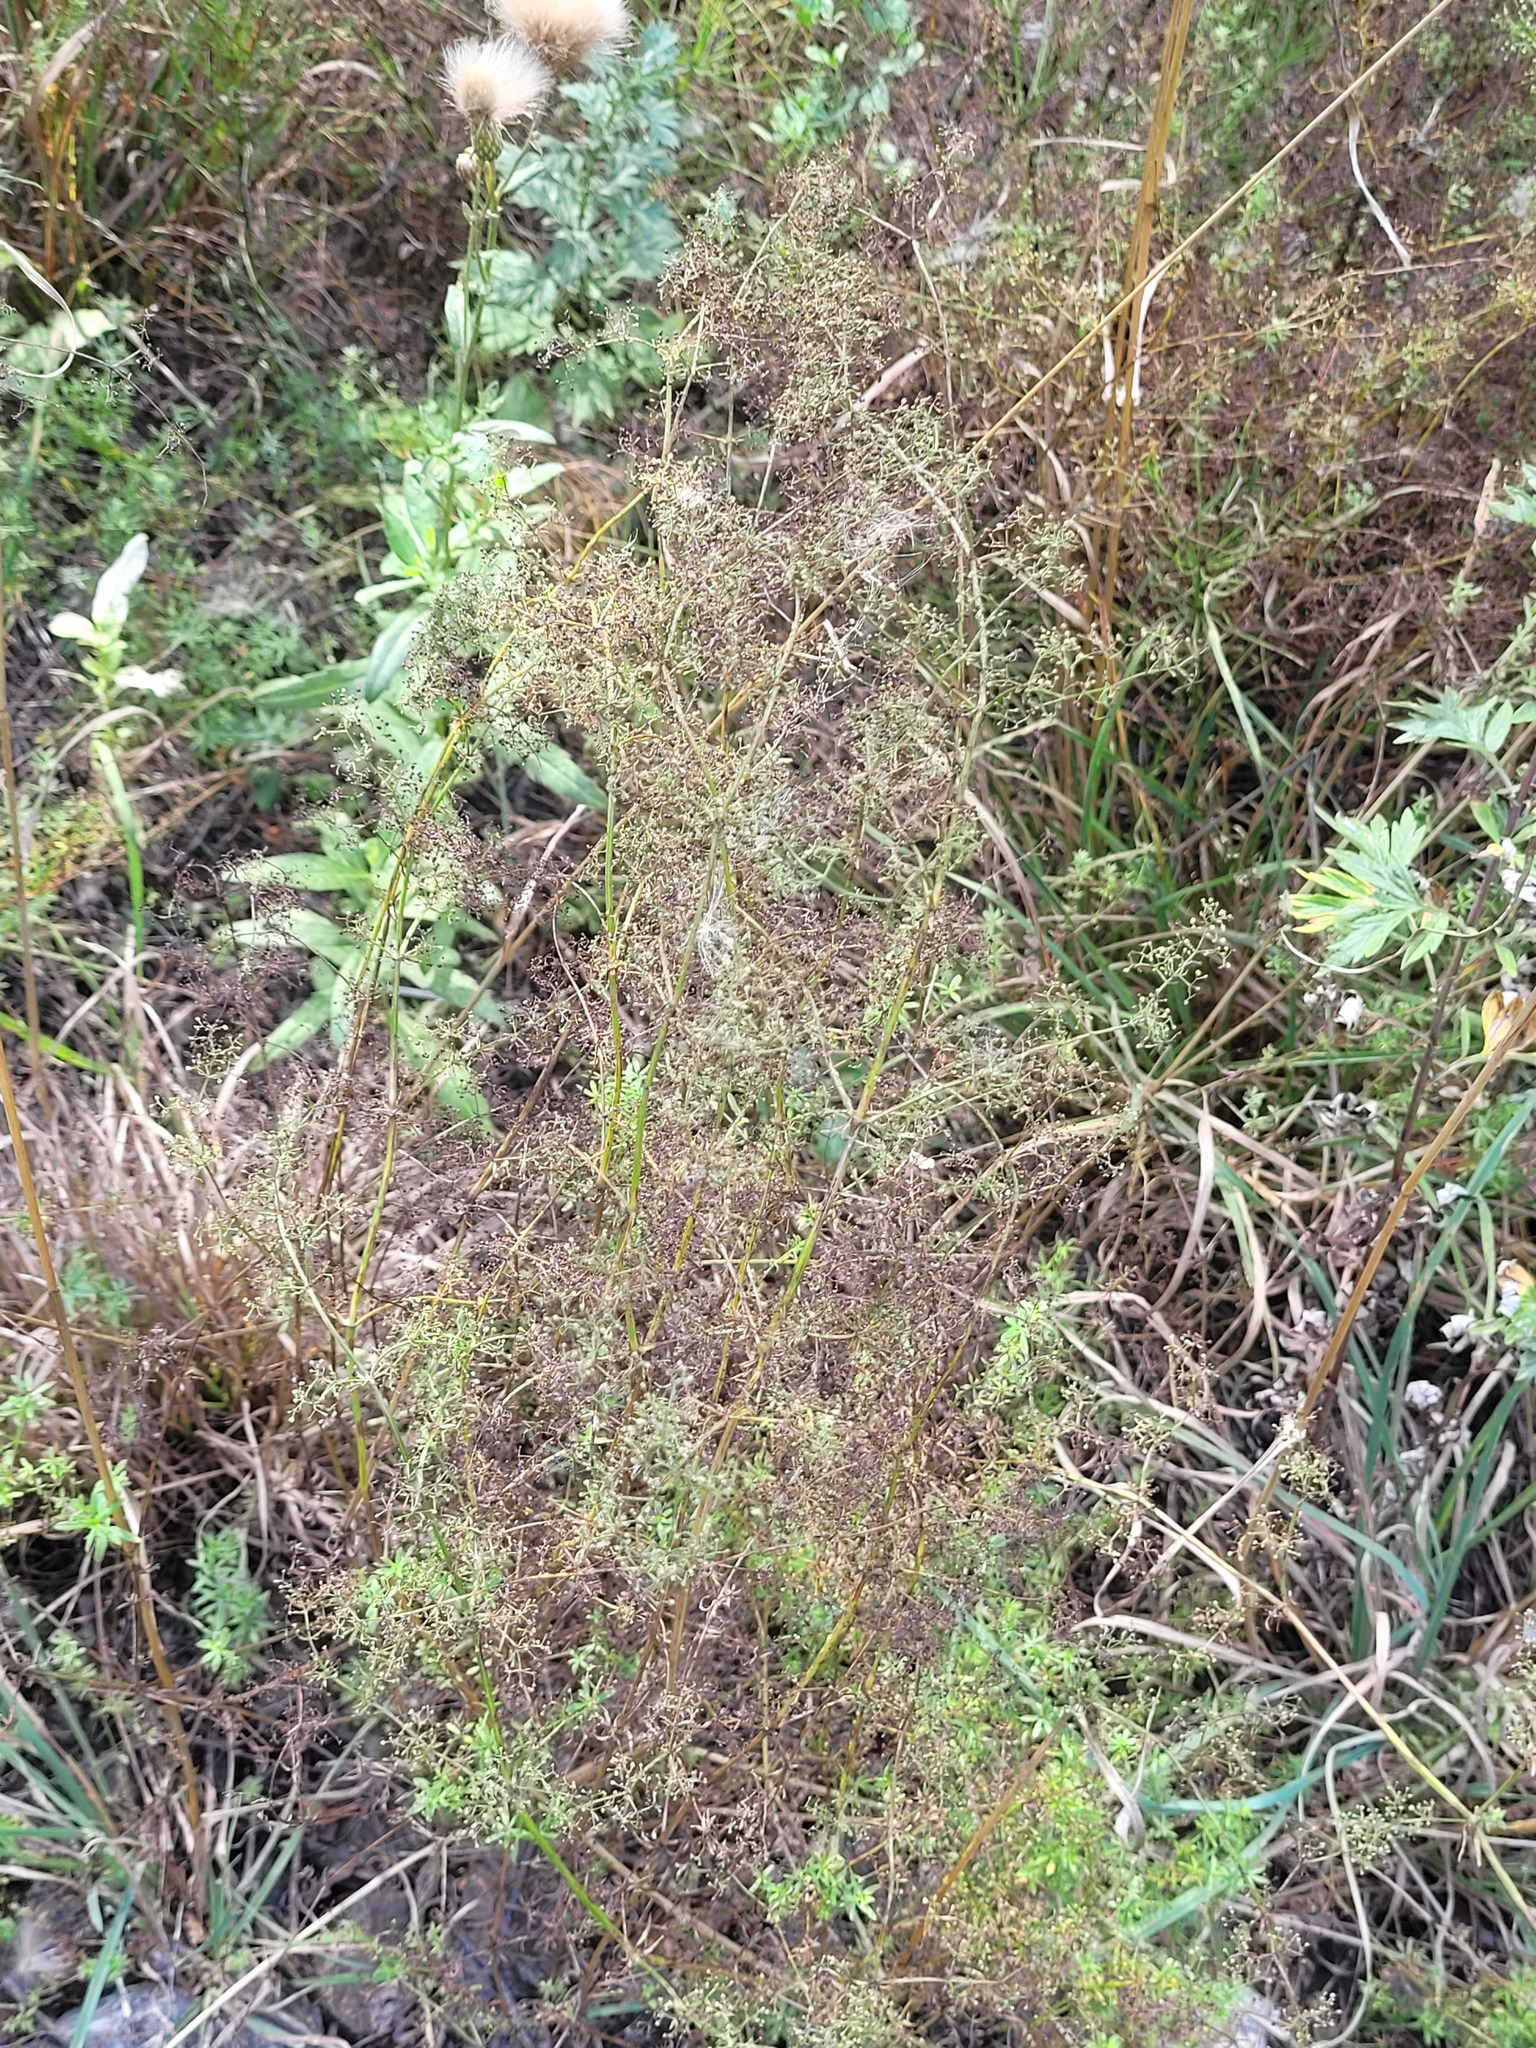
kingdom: Plantae
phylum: Tracheophyta
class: Magnoliopsida
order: Gentianales
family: Rubiaceae
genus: Galium
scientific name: Galium mollugo
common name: Hedge bedstraw
